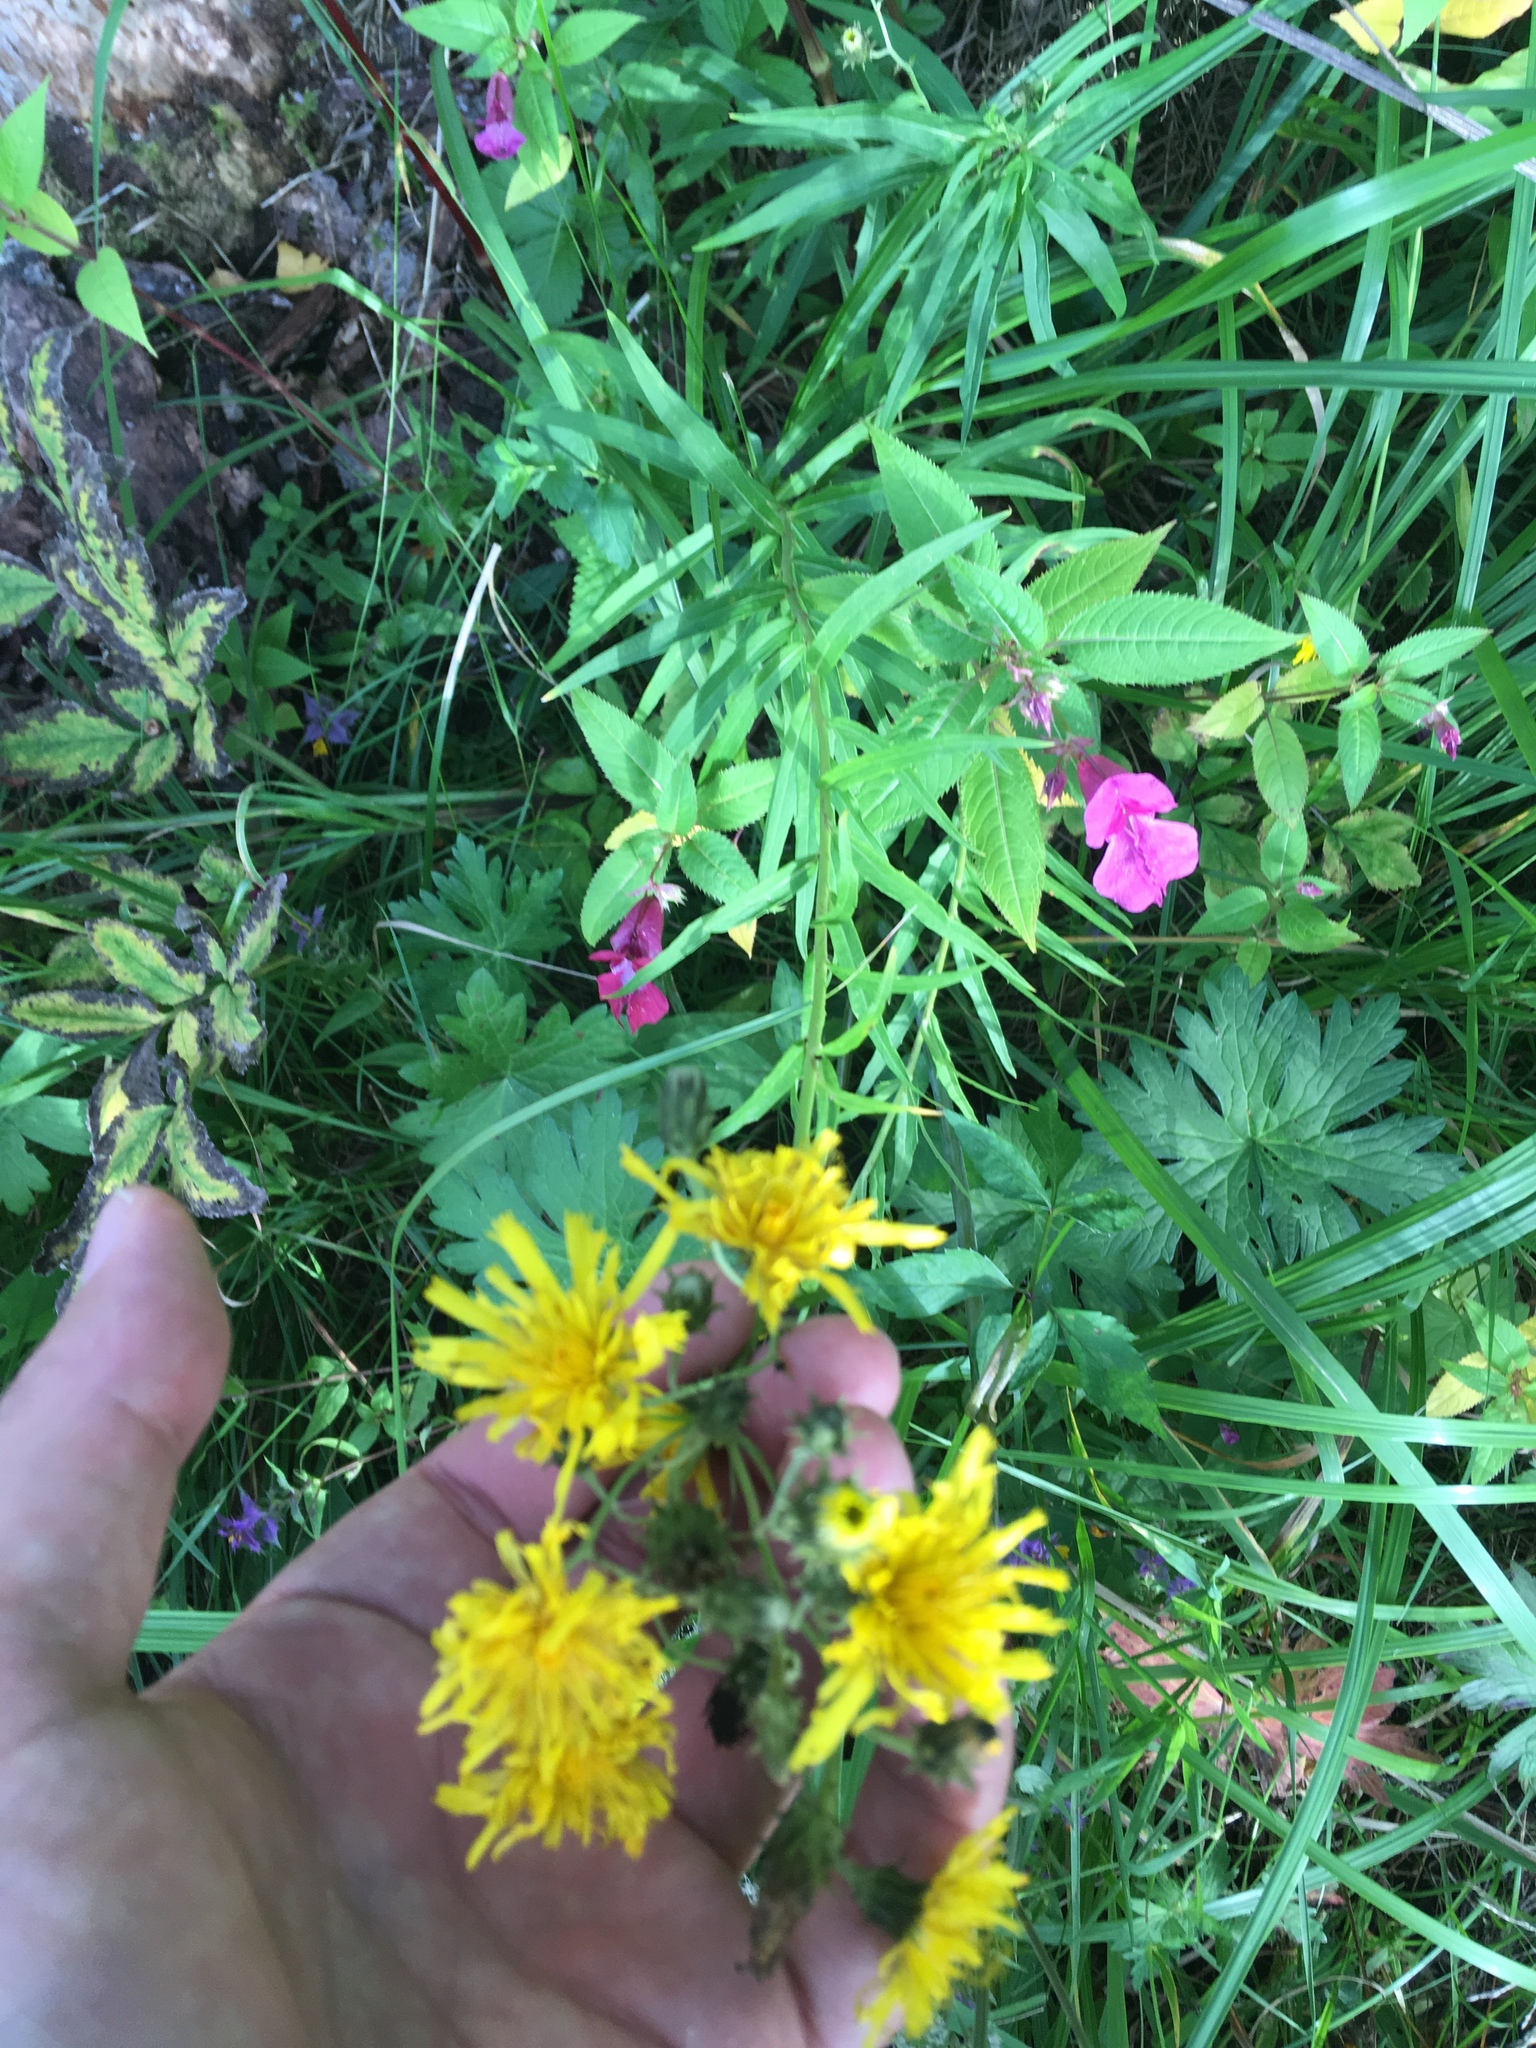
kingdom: Plantae
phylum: Tracheophyta
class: Magnoliopsida
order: Asterales
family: Asteraceae
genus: Hieracium
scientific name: Hieracium umbellatum
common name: Northern hawkweed
